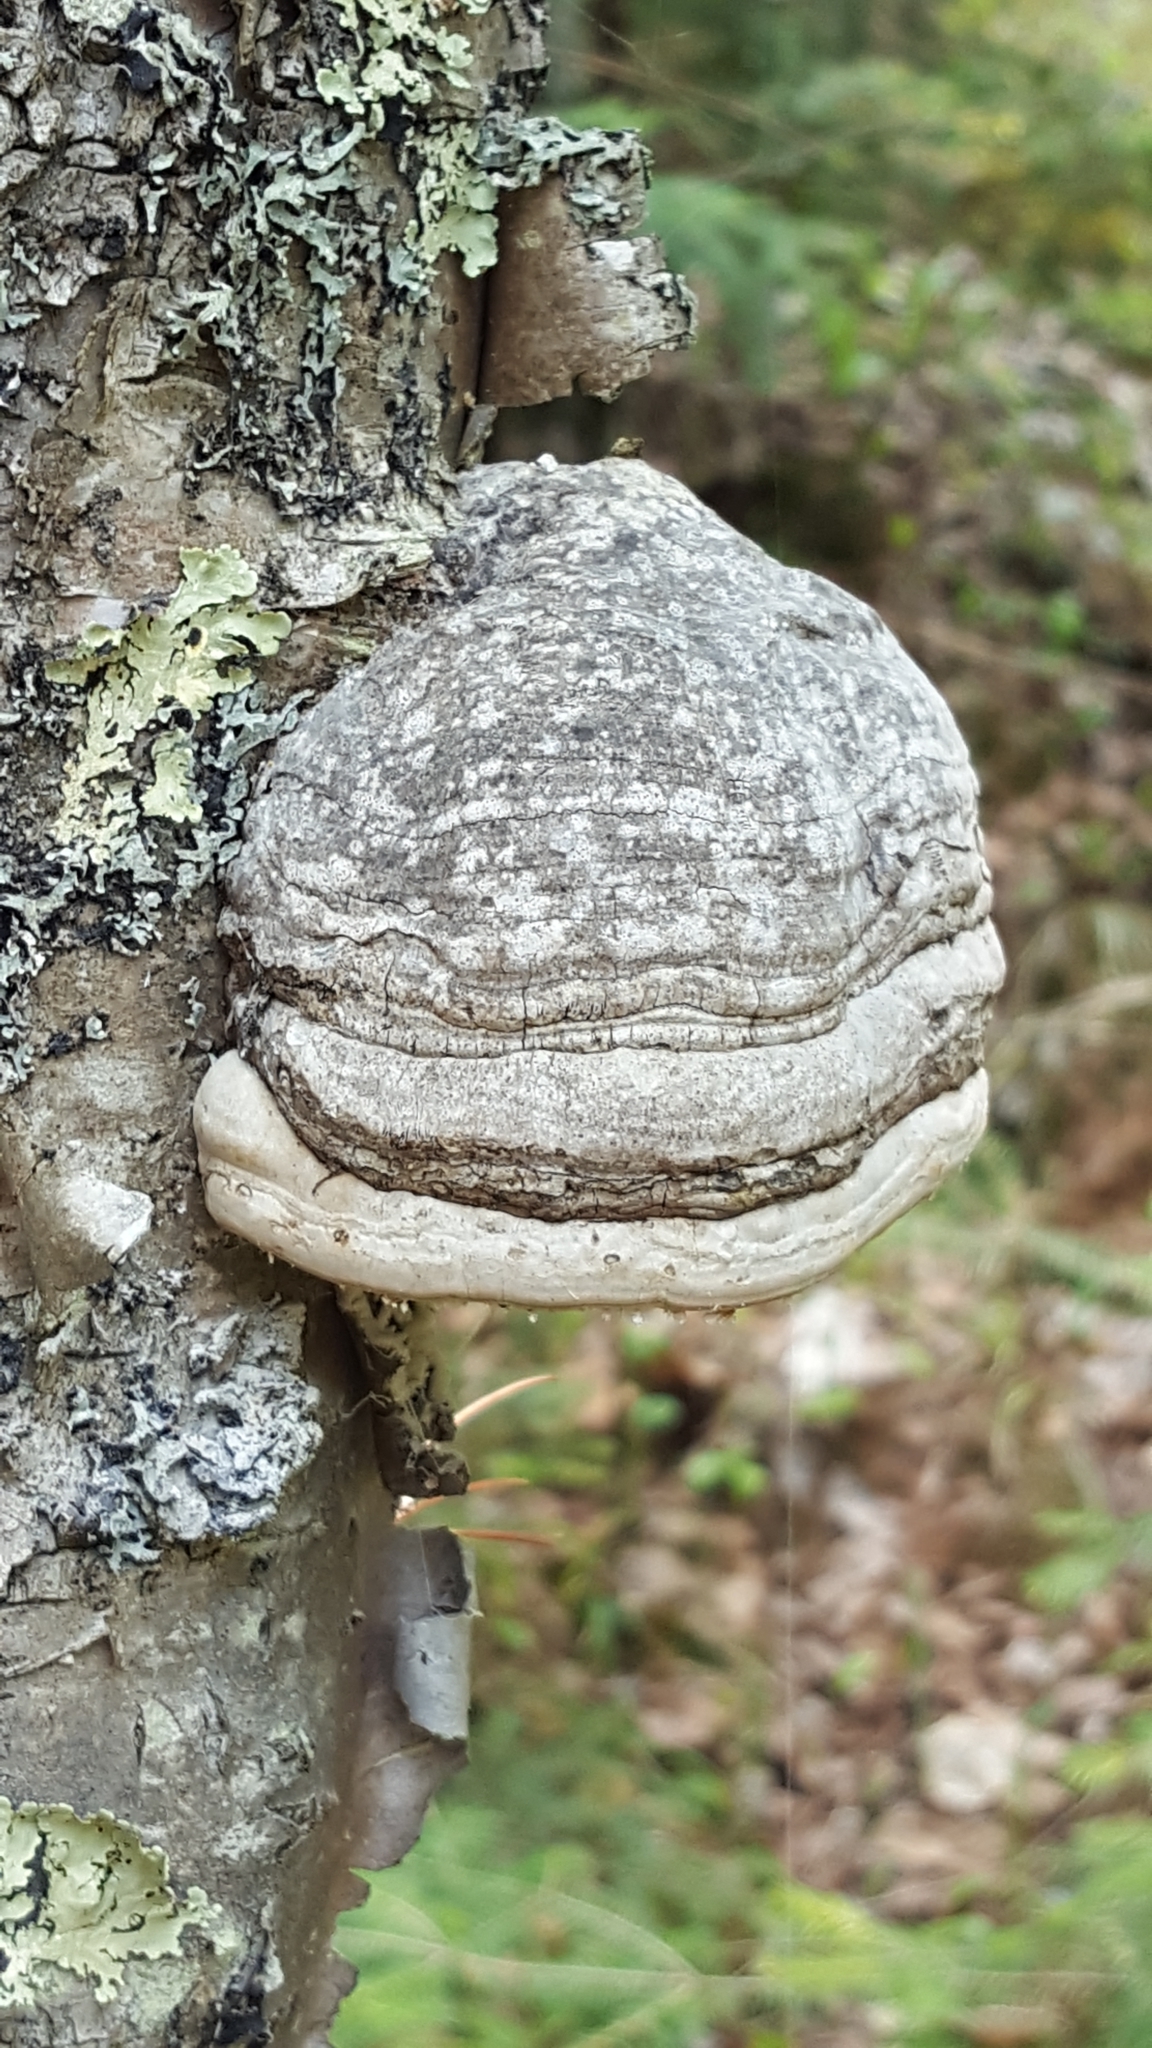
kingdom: Fungi
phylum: Basidiomycota
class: Agaricomycetes
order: Polyporales
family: Polyporaceae
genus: Fomes
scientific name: Fomes fomentarius
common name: Hoof fungus
